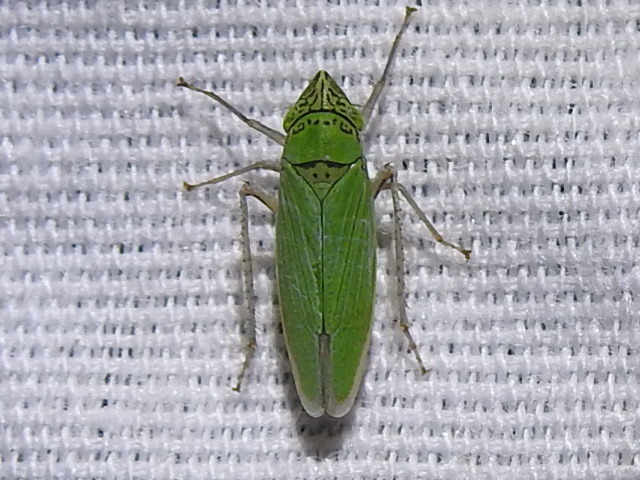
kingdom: Animalia
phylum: Arthropoda
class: Insecta
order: Hemiptera
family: Cicadellidae
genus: Draeculacephala
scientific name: Draeculacephala inscripta
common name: Leafhopper
